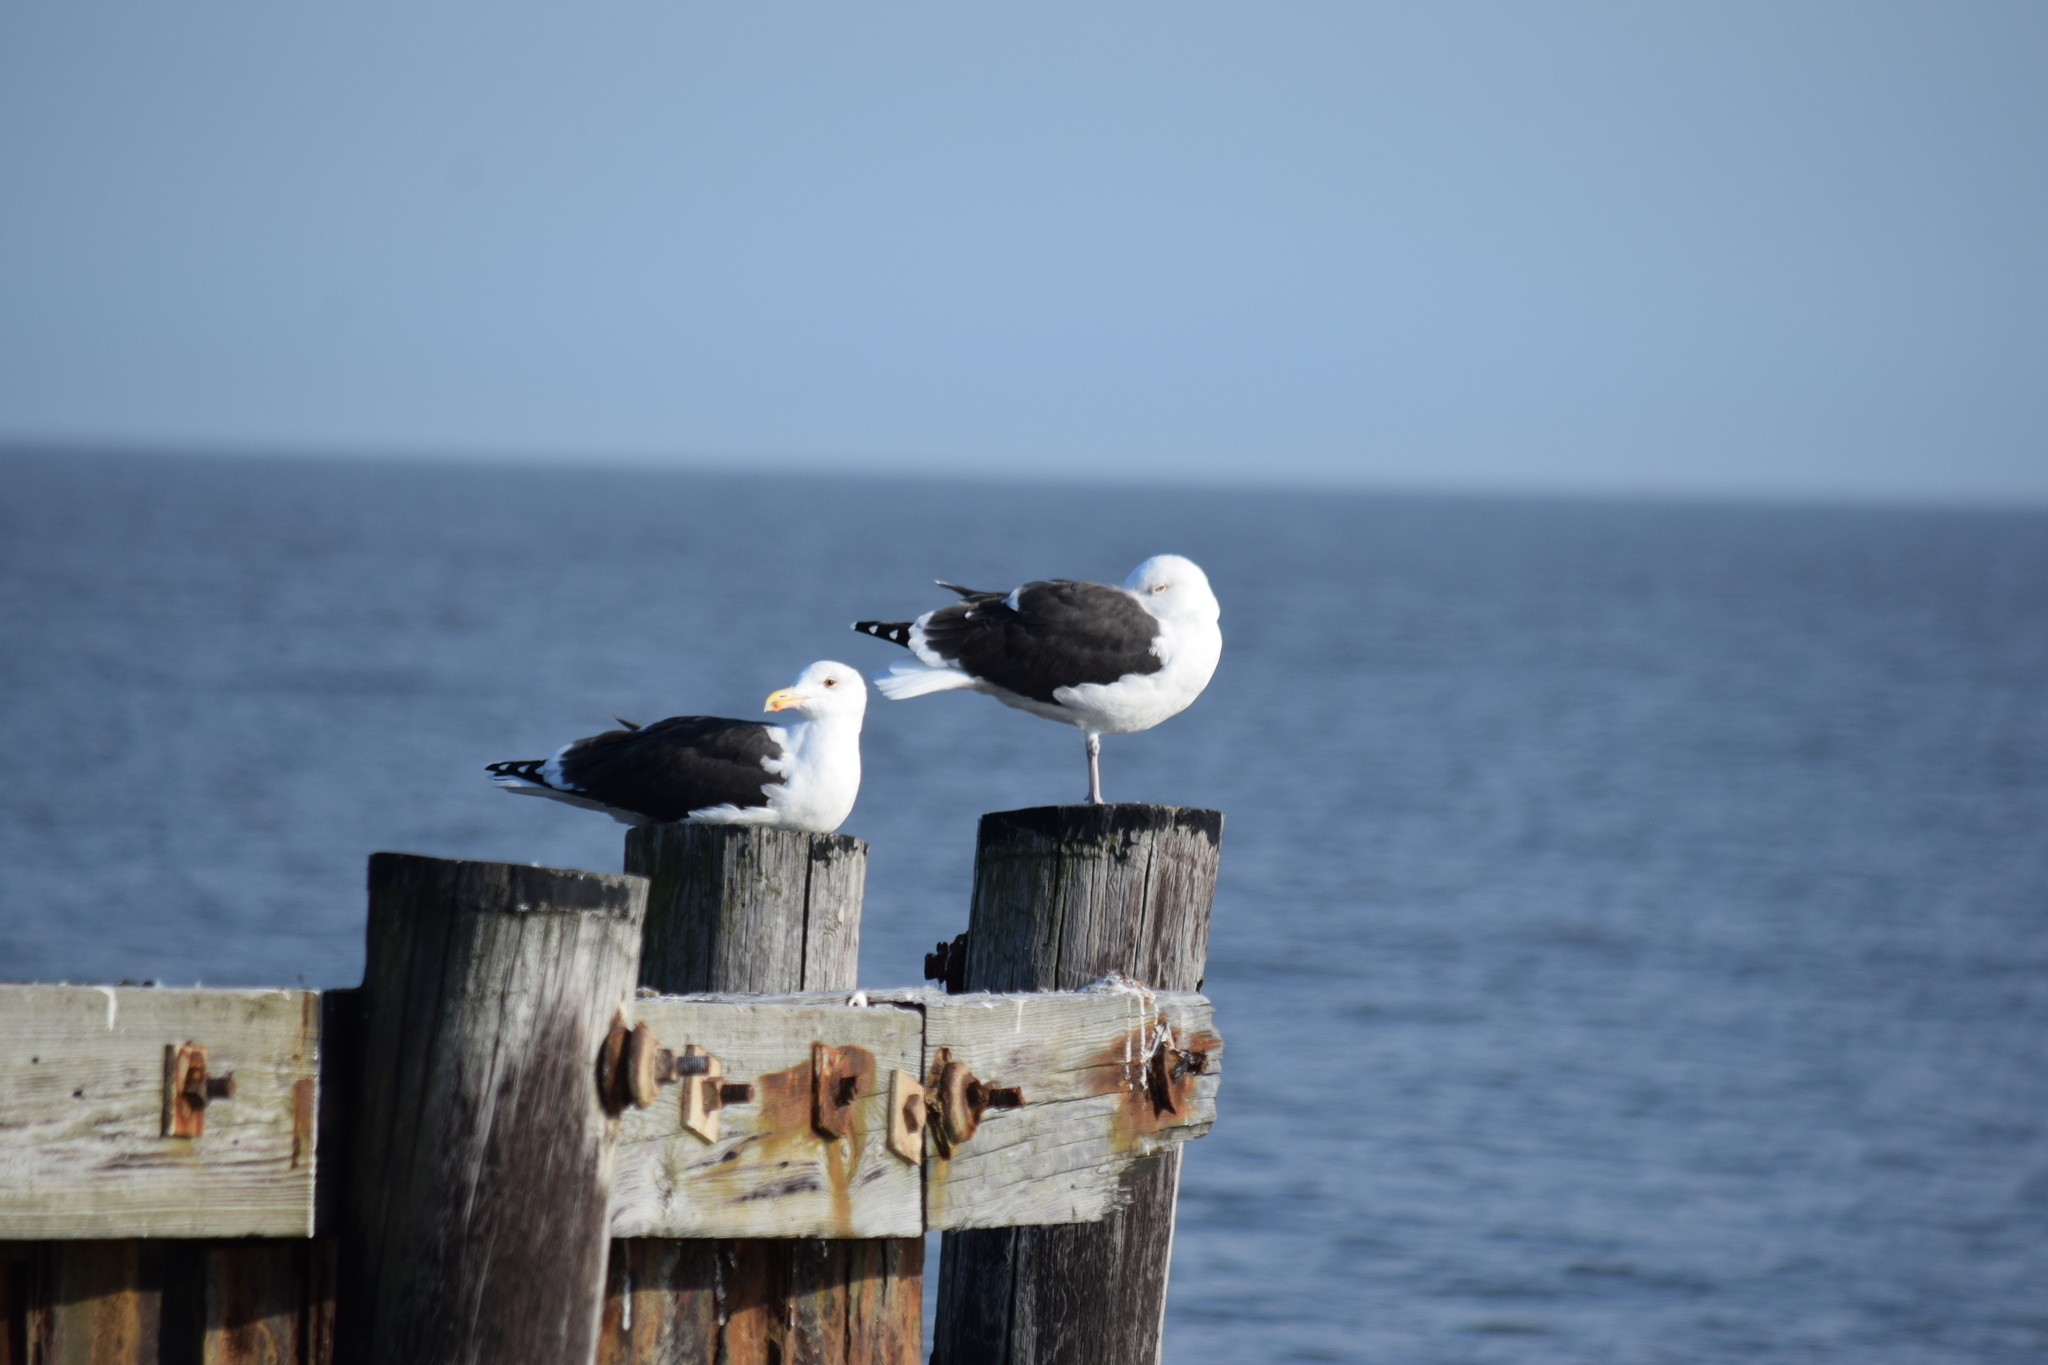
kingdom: Animalia
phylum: Chordata
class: Aves
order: Charadriiformes
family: Laridae
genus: Larus
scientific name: Larus marinus
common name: Great black-backed gull
